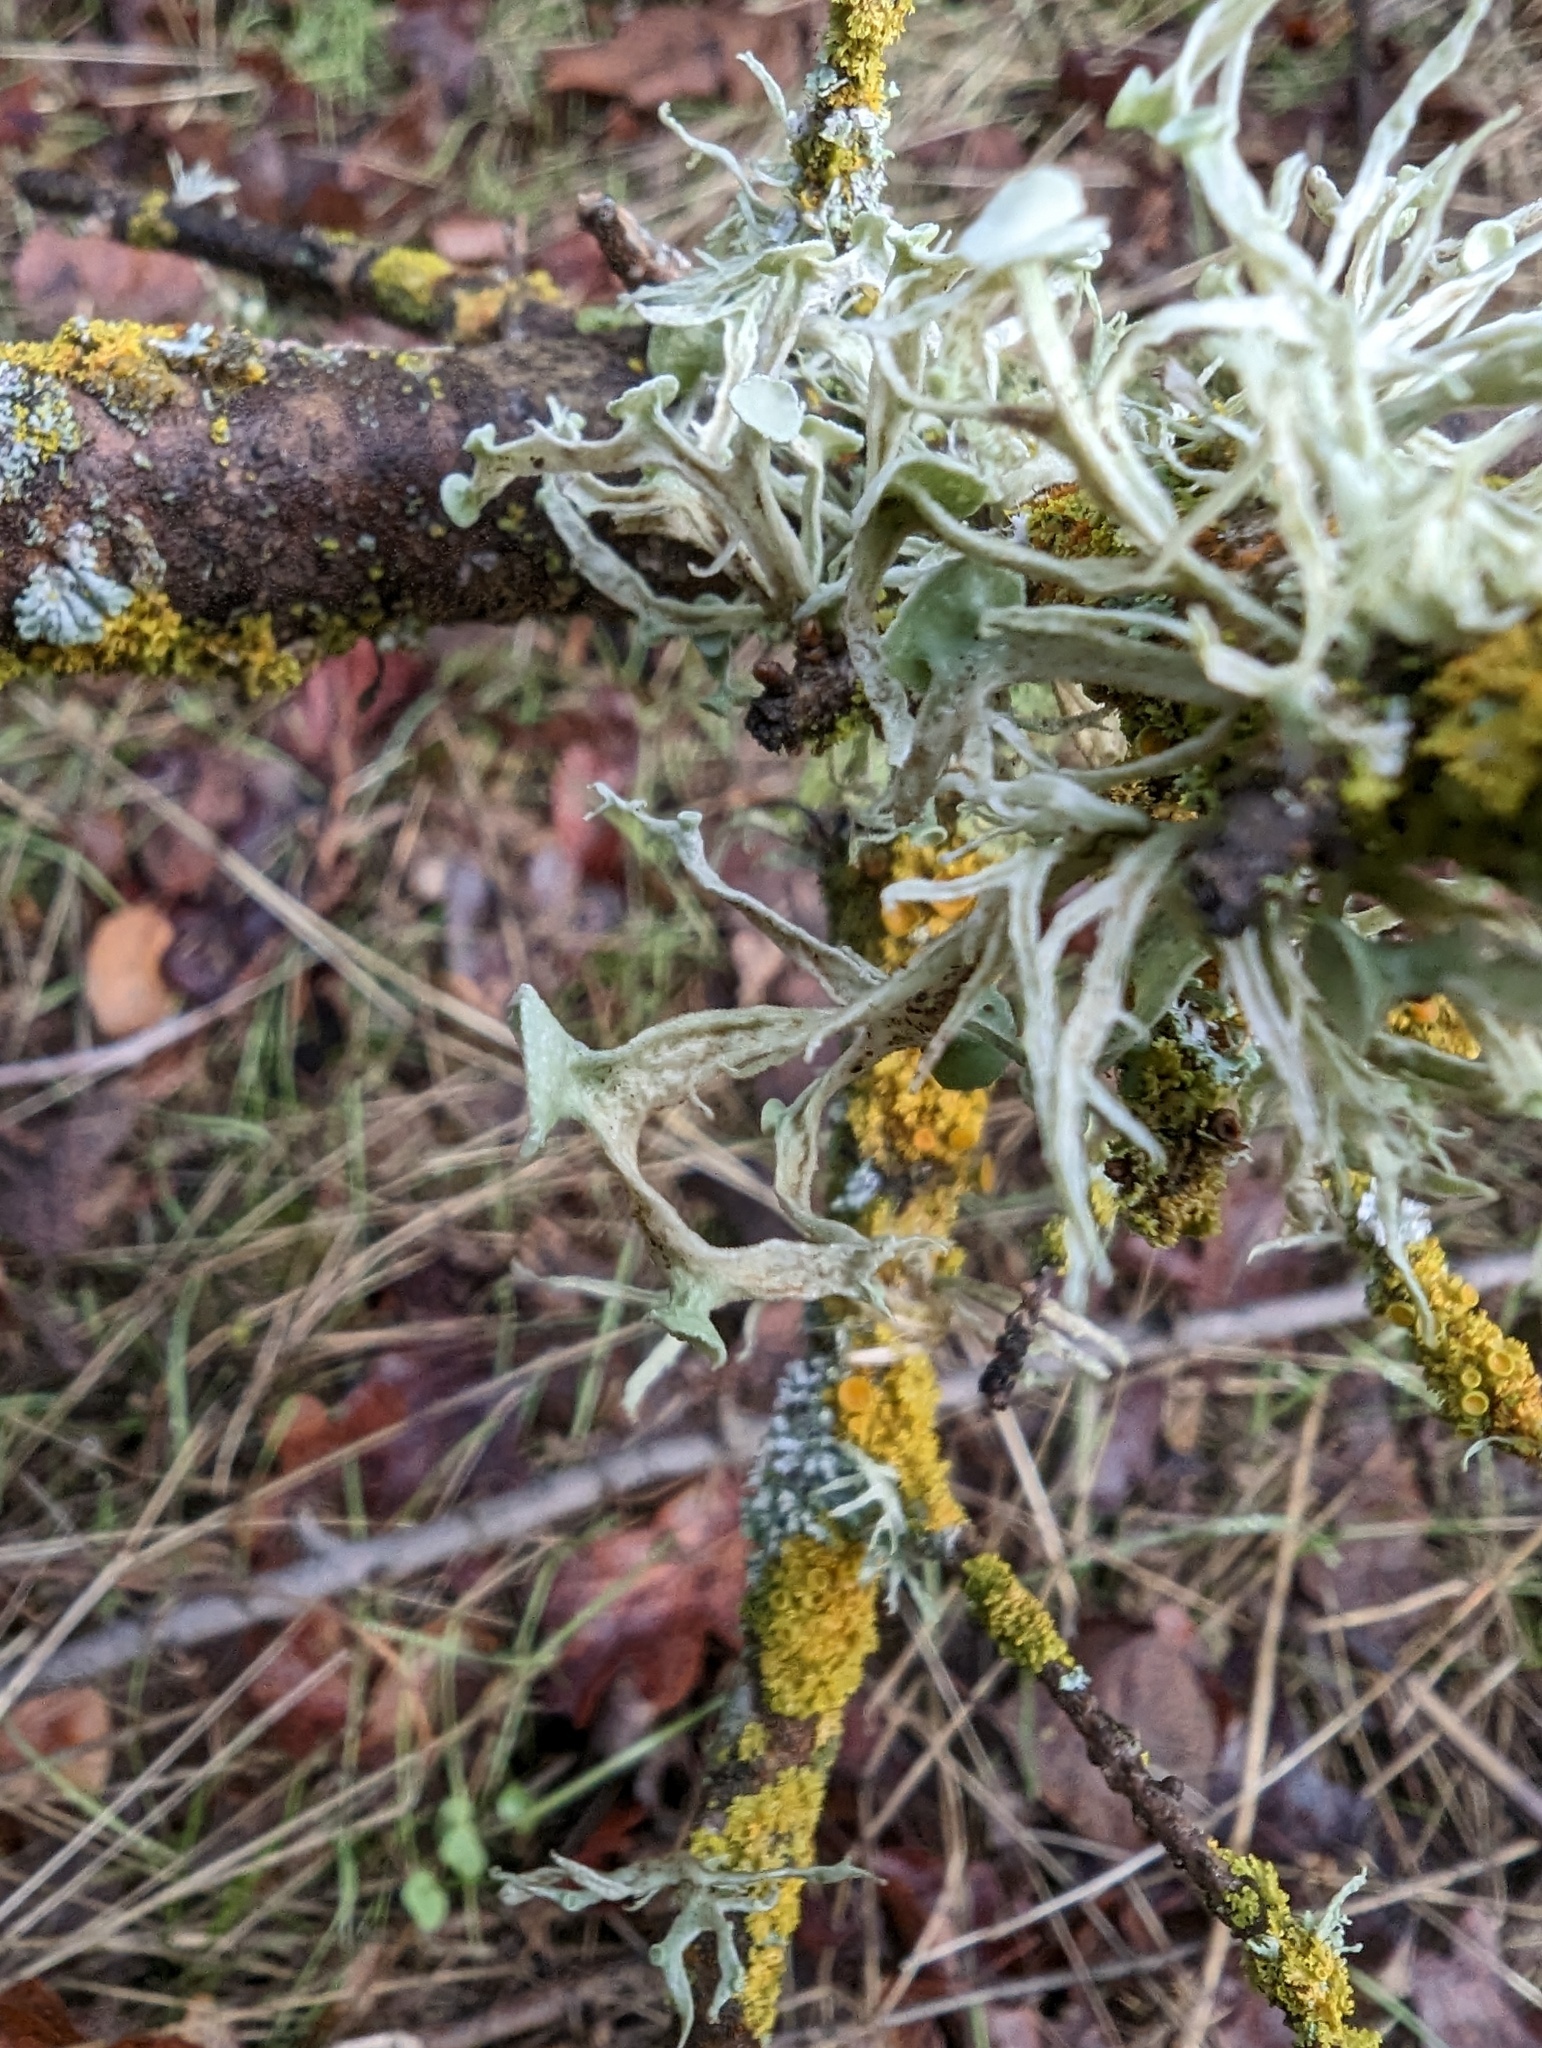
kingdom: Fungi
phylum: Ascomycota
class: Lecanoromycetes
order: Lecanorales
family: Ramalinaceae
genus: Ramalina
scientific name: Ramalina leptocarpha
